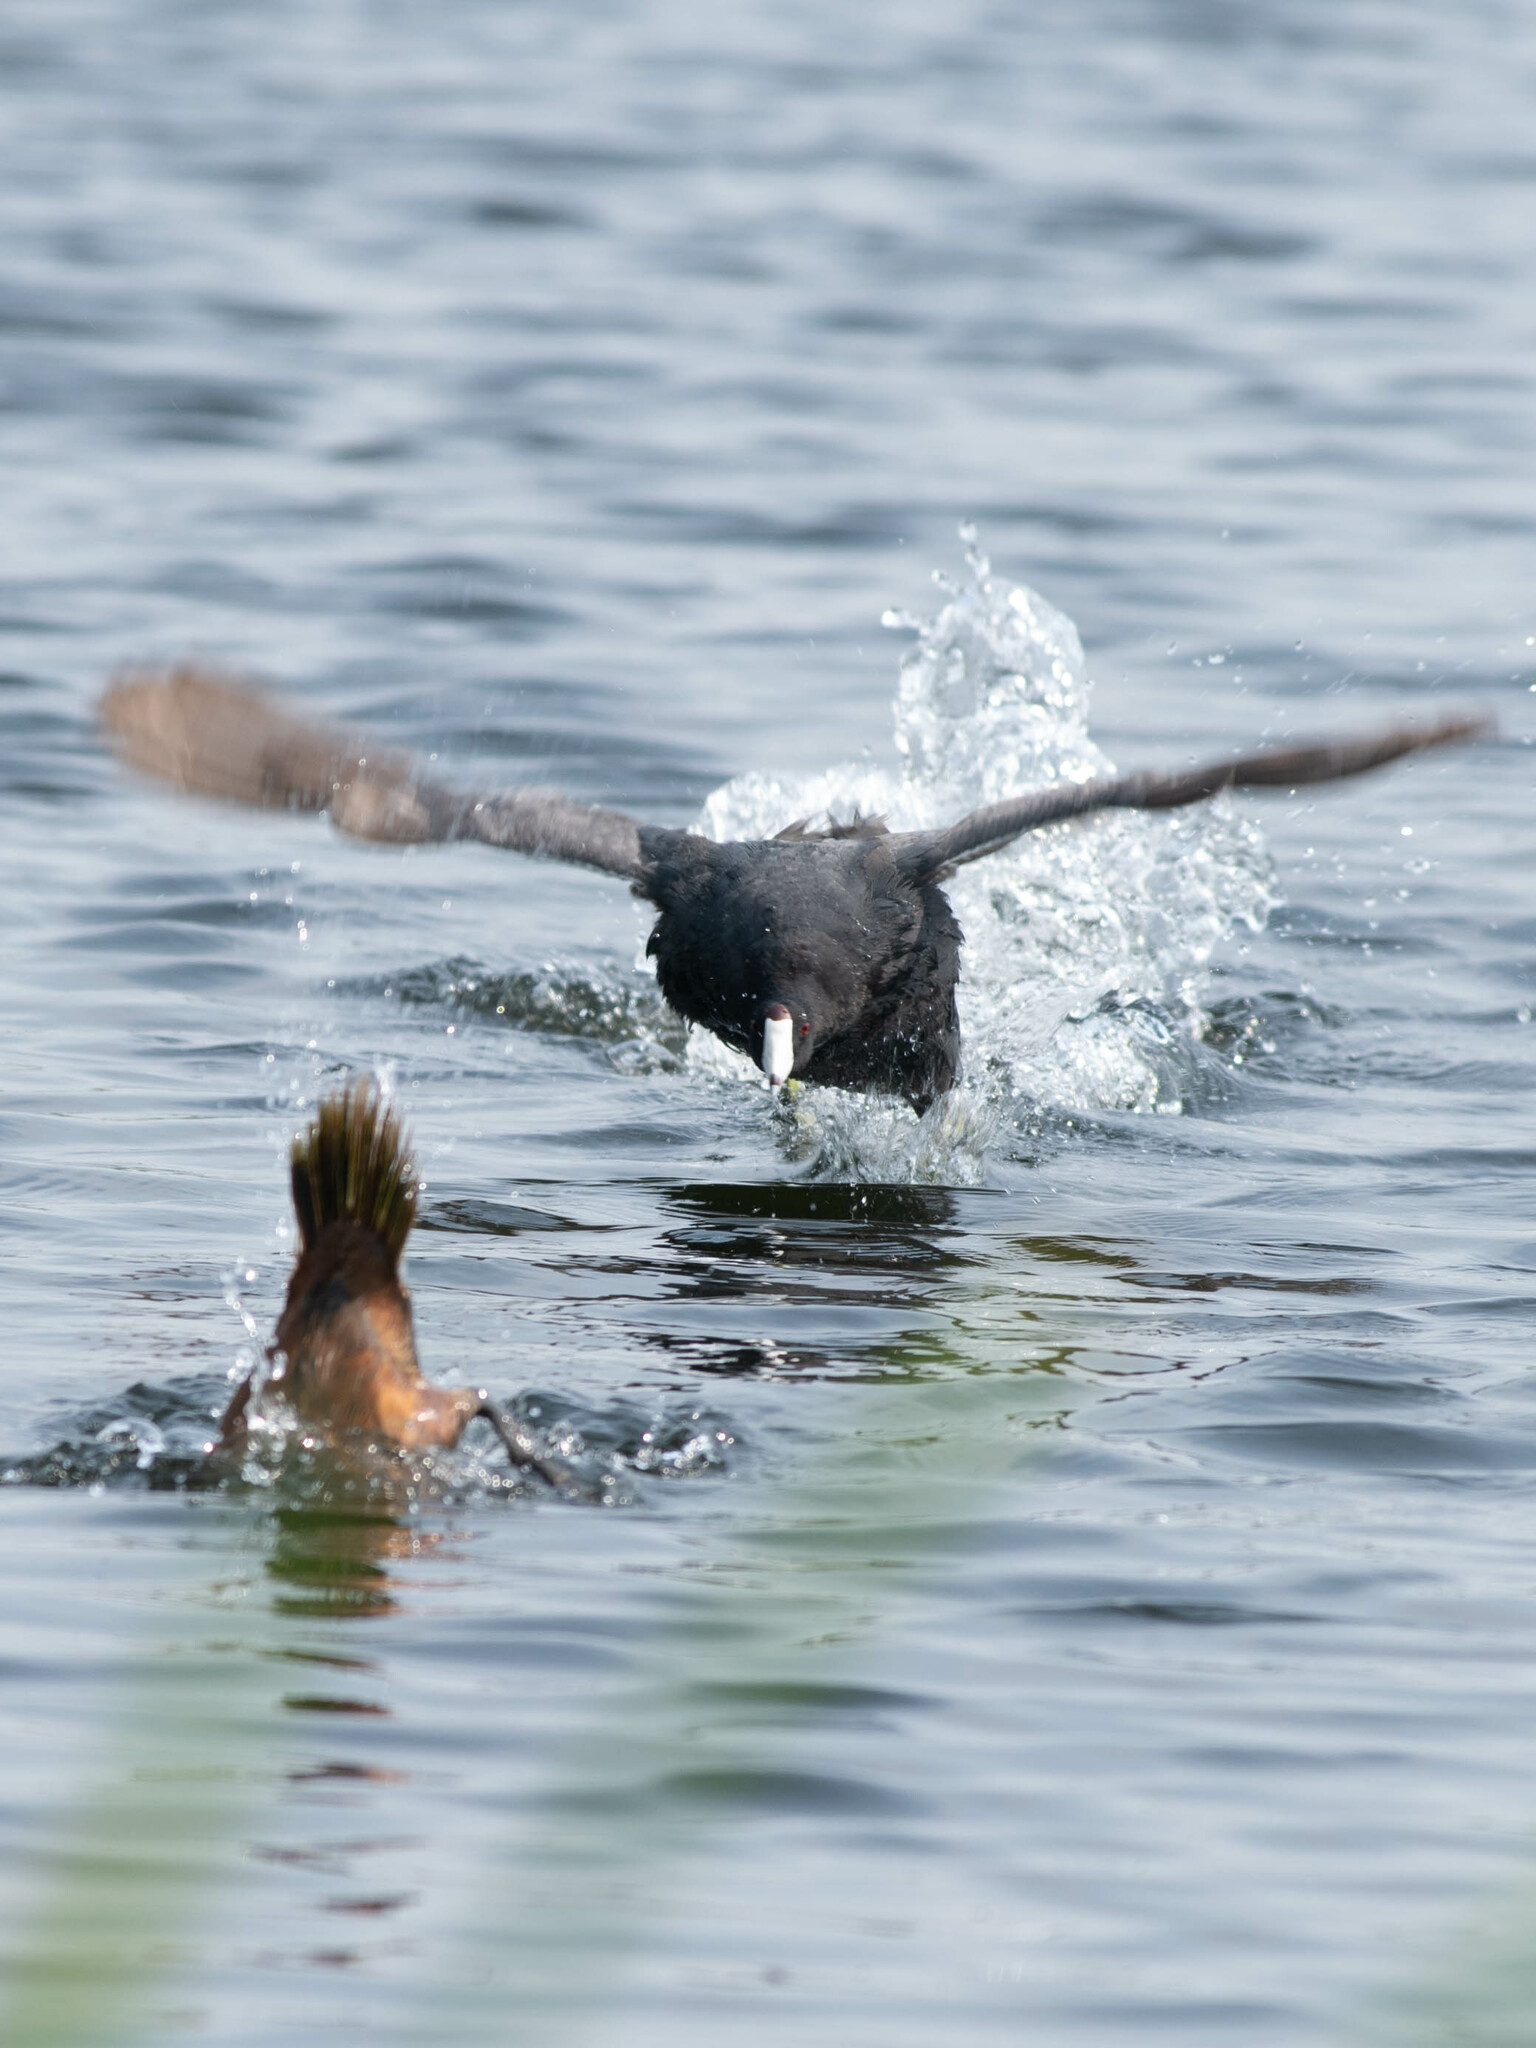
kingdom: Animalia
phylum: Chordata
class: Aves
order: Gruiformes
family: Rallidae
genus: Fulica
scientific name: Fulica americana
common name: American coot
